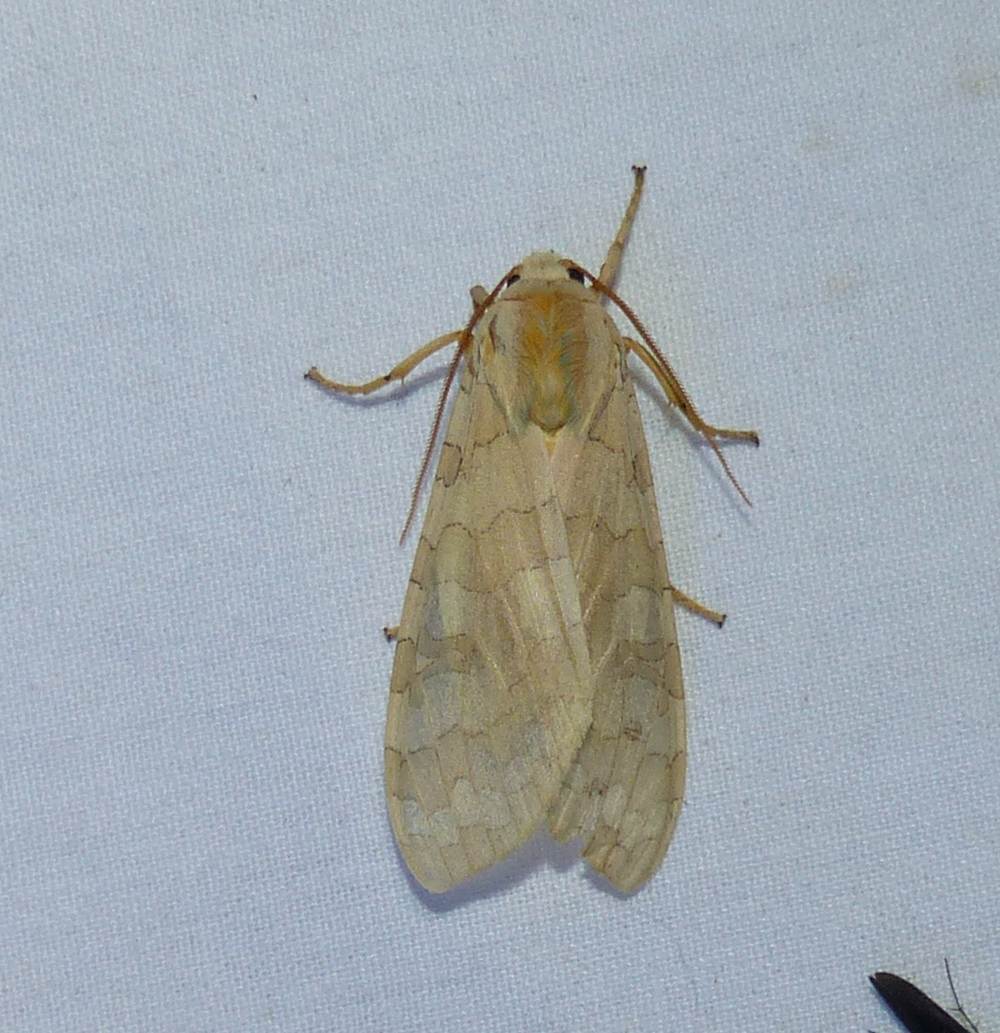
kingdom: Animalia
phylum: Arthropoda
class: Insecta
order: Lepidoptera
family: Erebidae
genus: Halysidota
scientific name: Halysidota tessellaris
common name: Banded tussock moth
